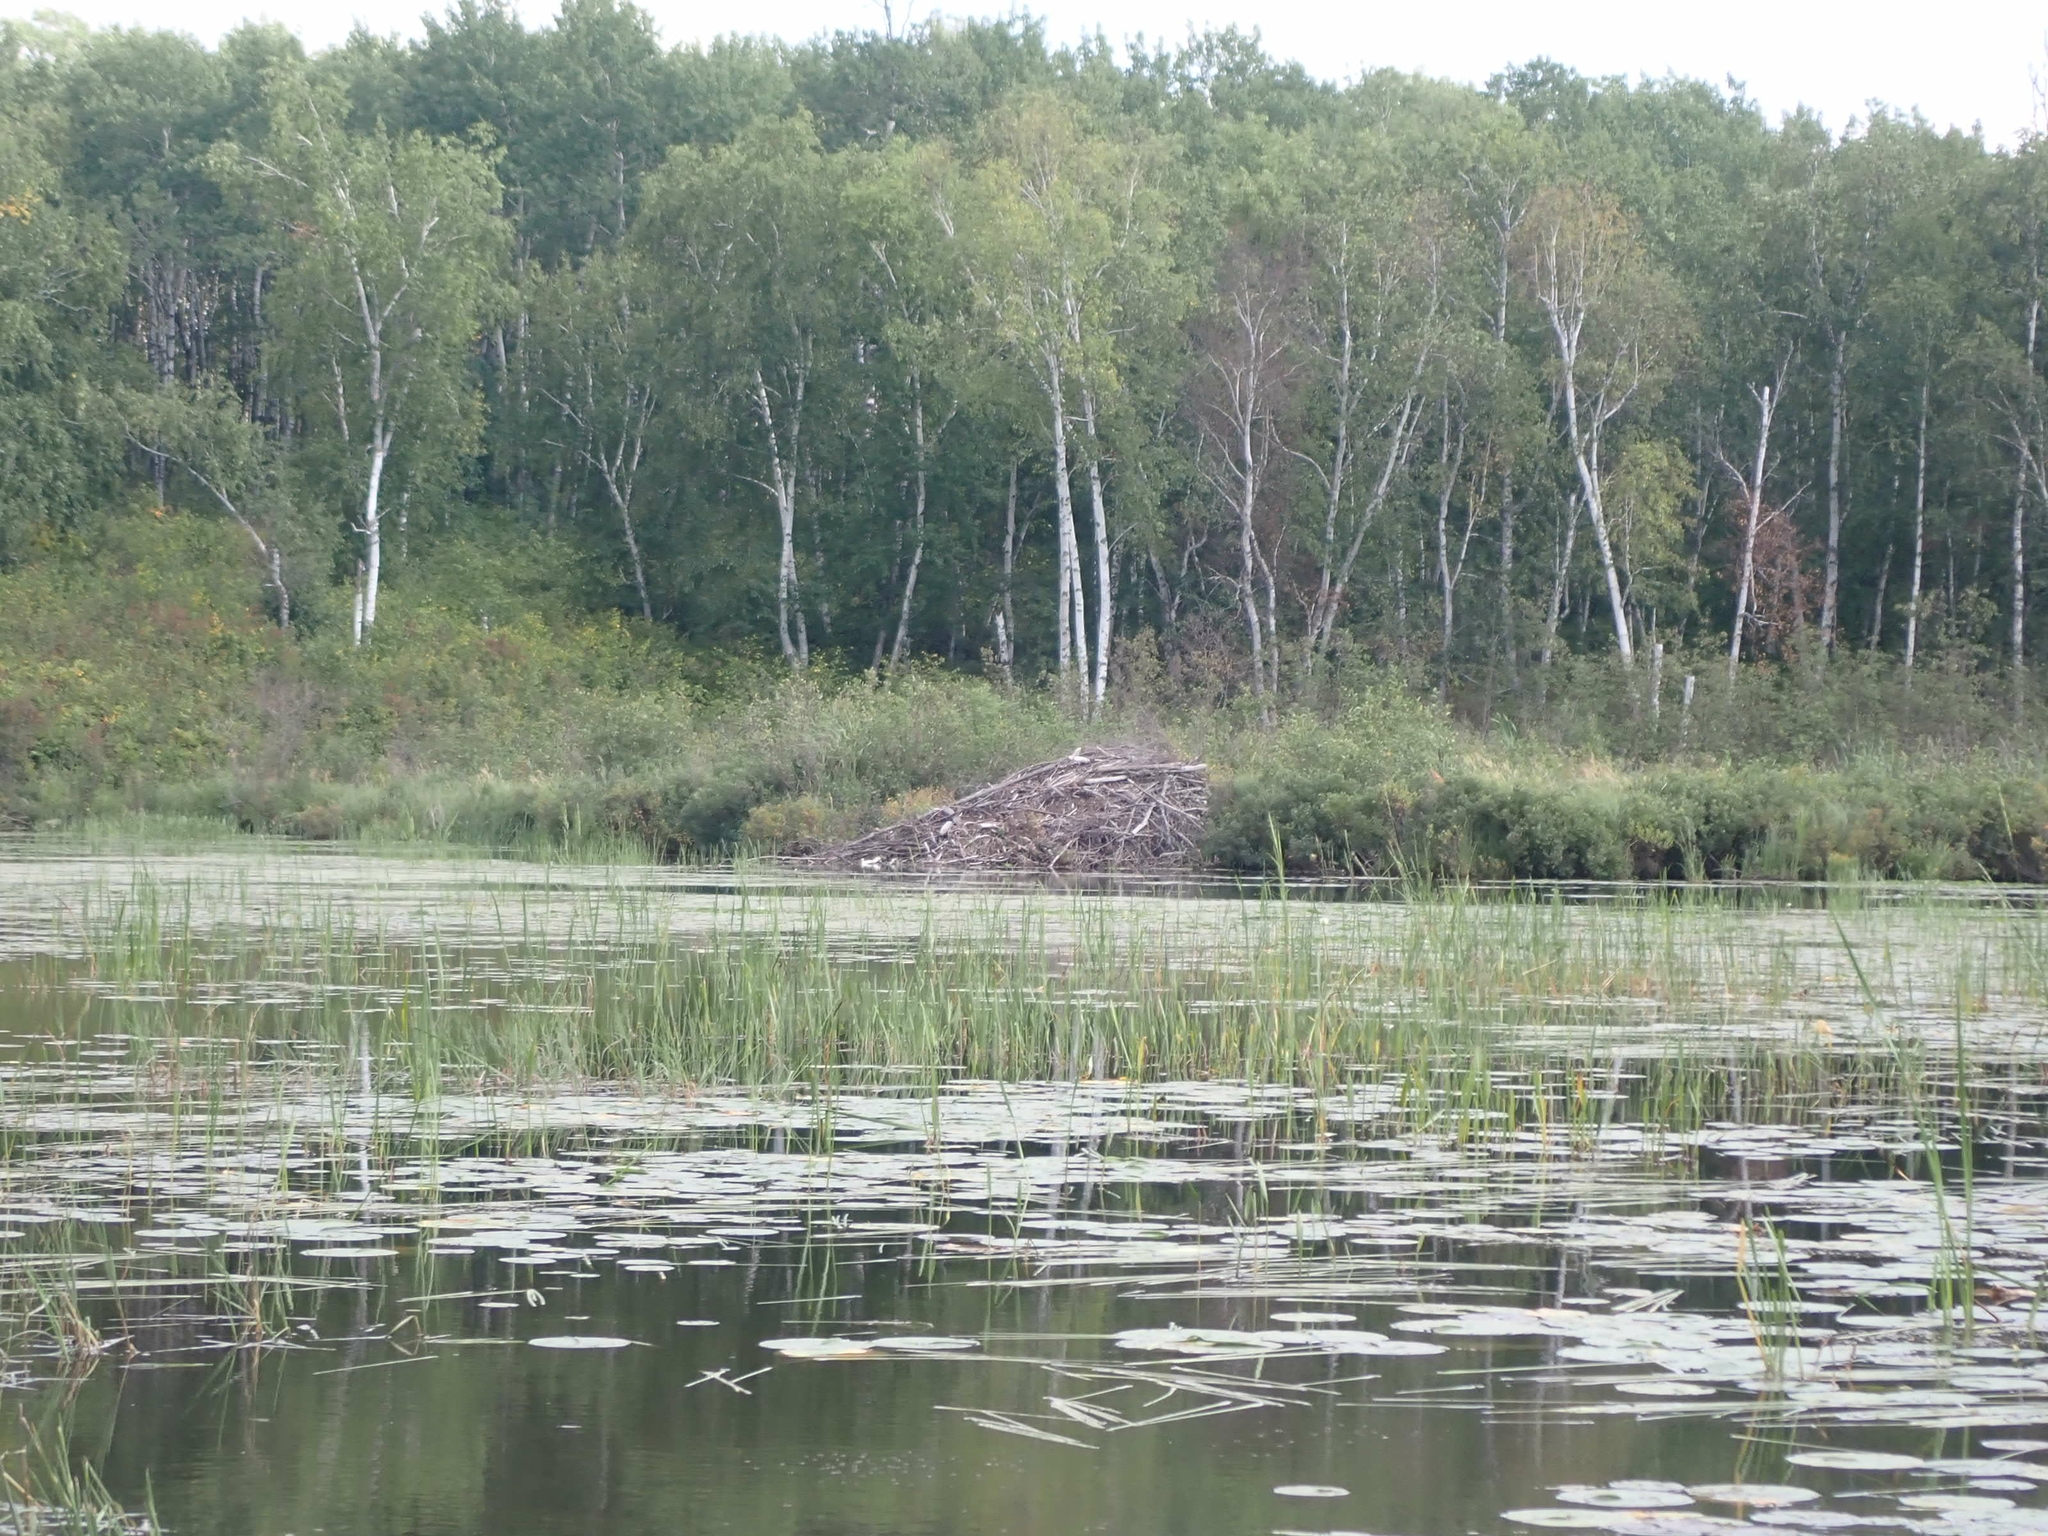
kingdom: Animalia
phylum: Chordata
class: Mammalia
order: Rodentia
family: Castoridae
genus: Castor
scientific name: Castor canadensis
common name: American beaver
